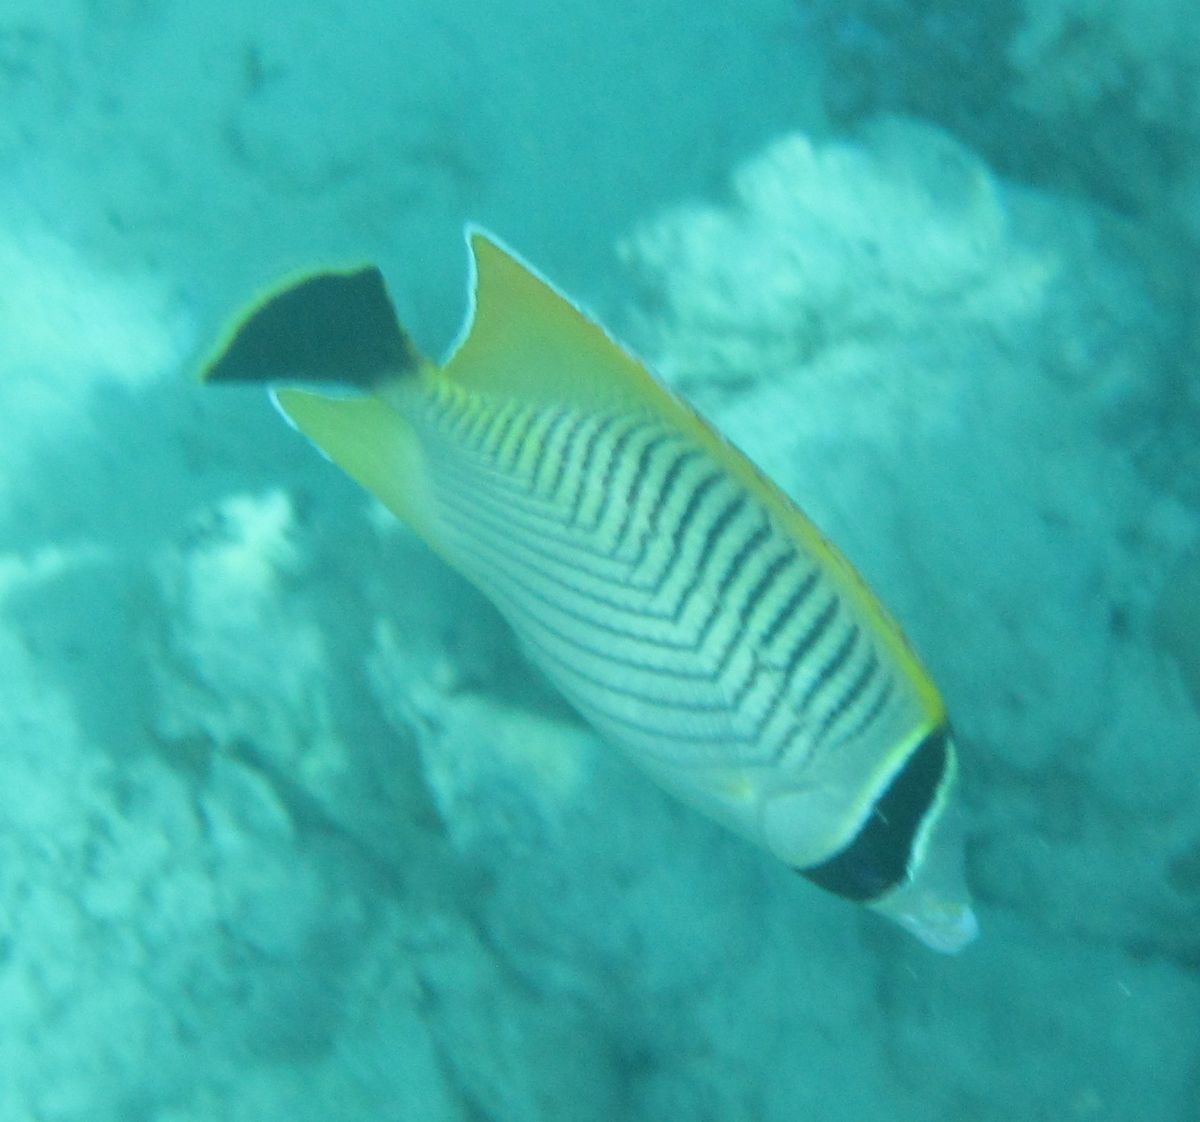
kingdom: Animalia
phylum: Chordata
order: Perciformes
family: Chaetodontidae
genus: Chaetodon
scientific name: Chaetodon trifascialis
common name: Chevroned butterflyfish
